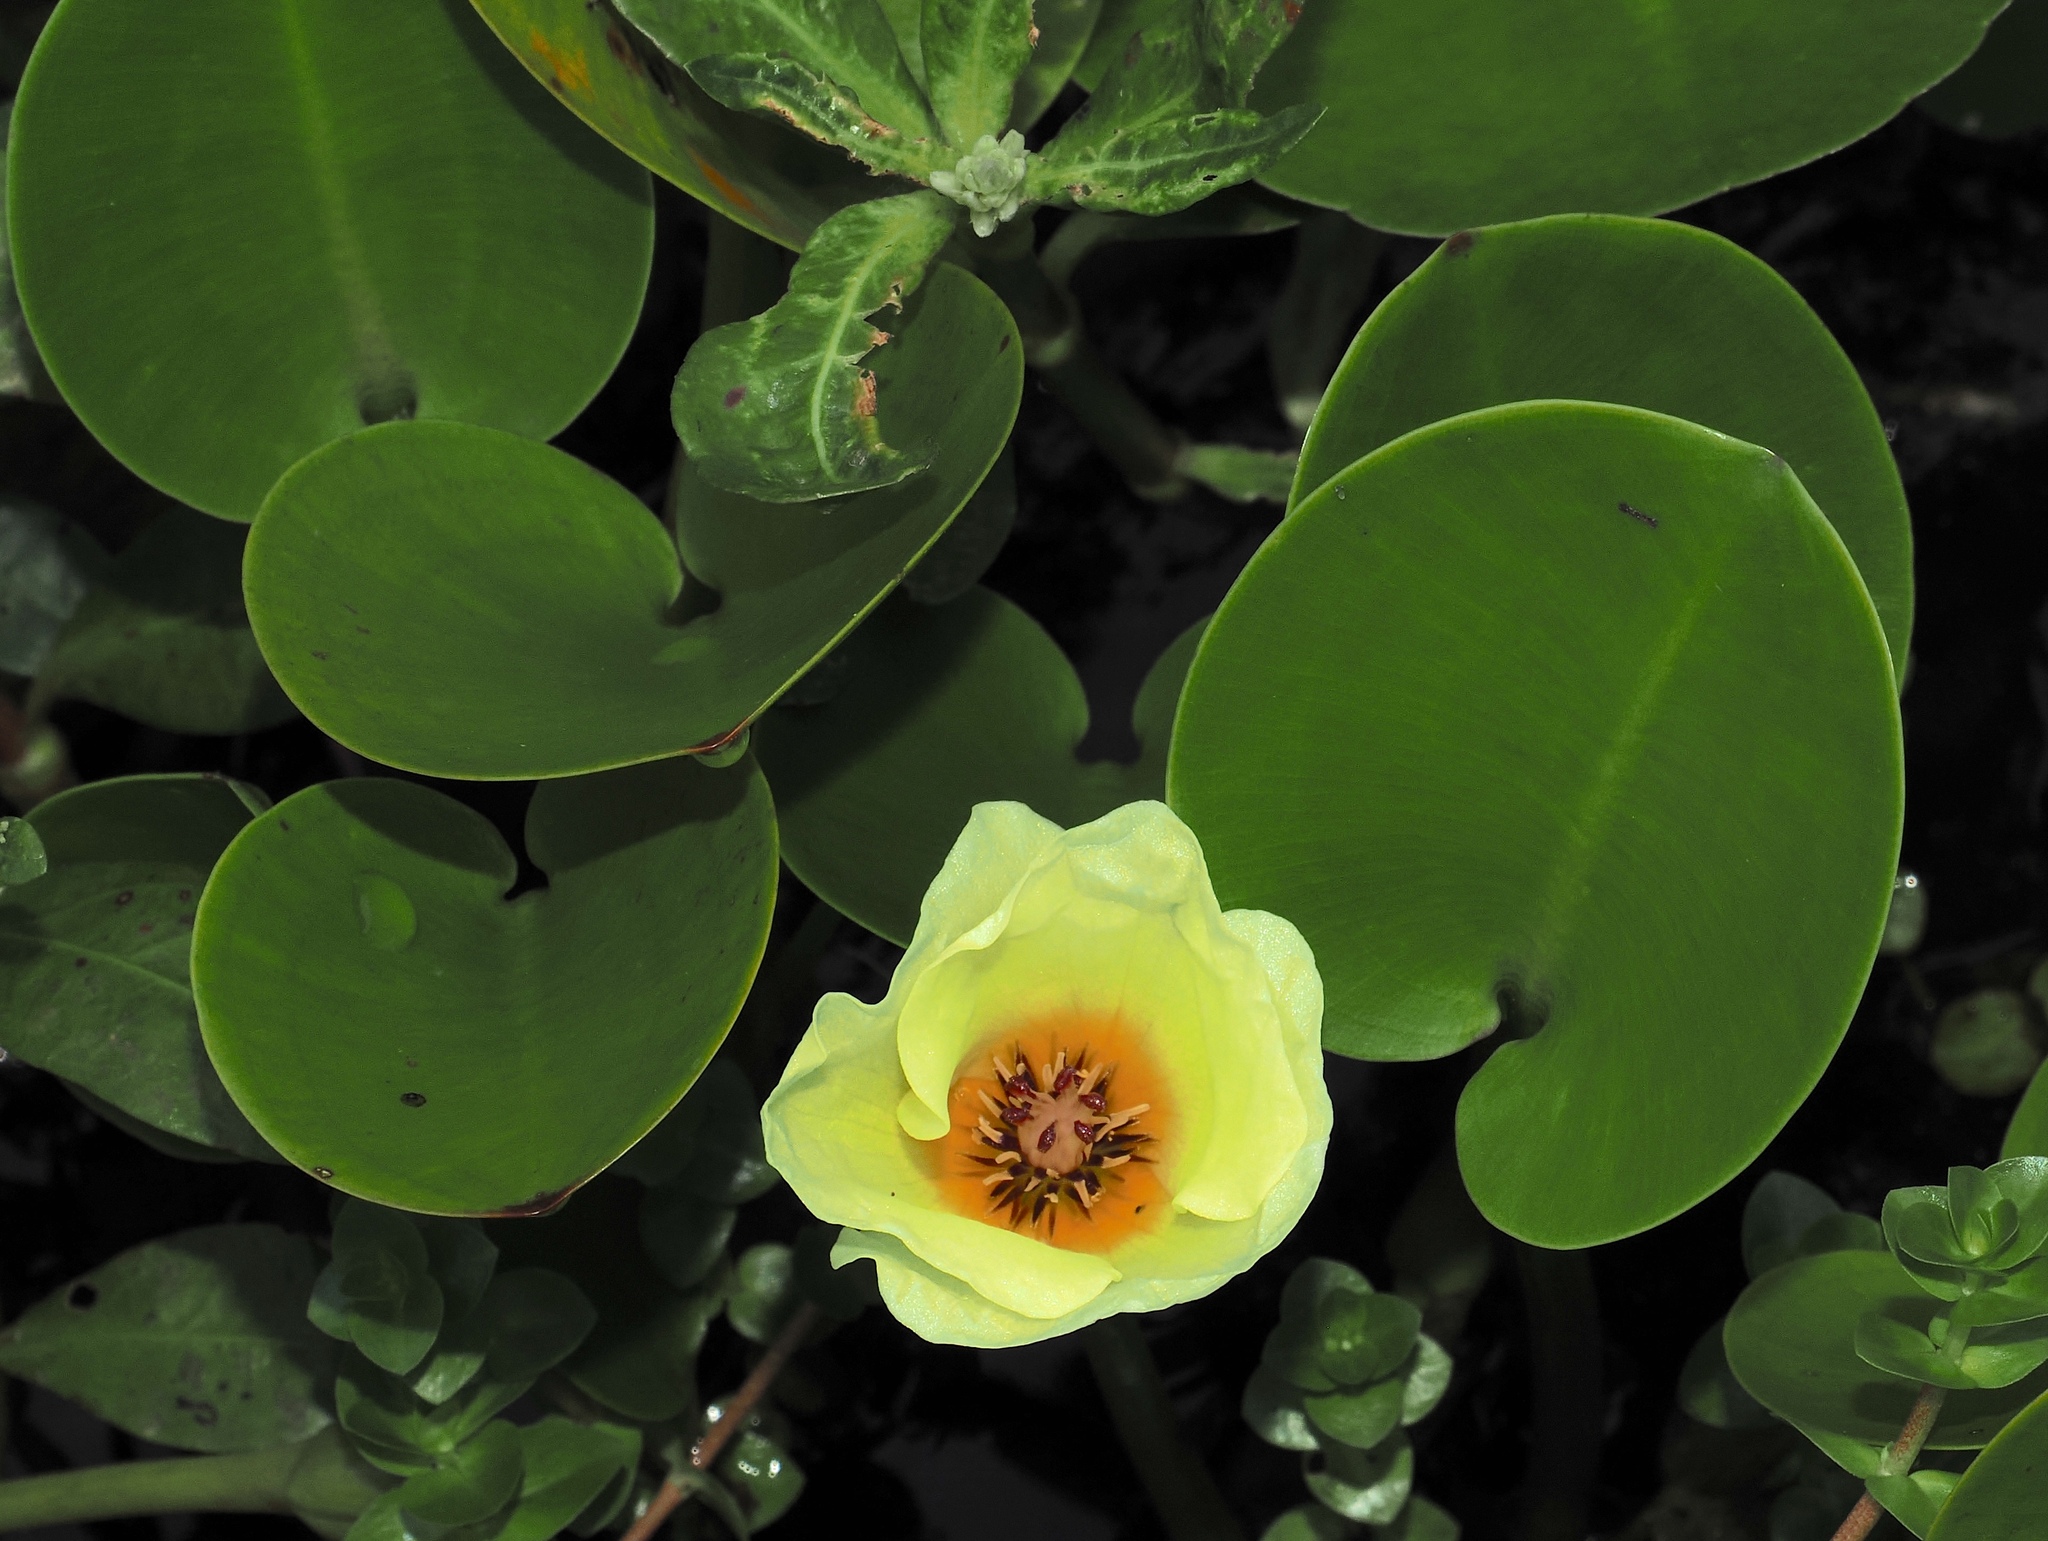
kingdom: Plantae
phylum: Tracheophyta
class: Liliopsida
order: Alismatales
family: Alismataceae
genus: Hydrocleys
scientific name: Hydrocleys nymphoides
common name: Water-poppy
